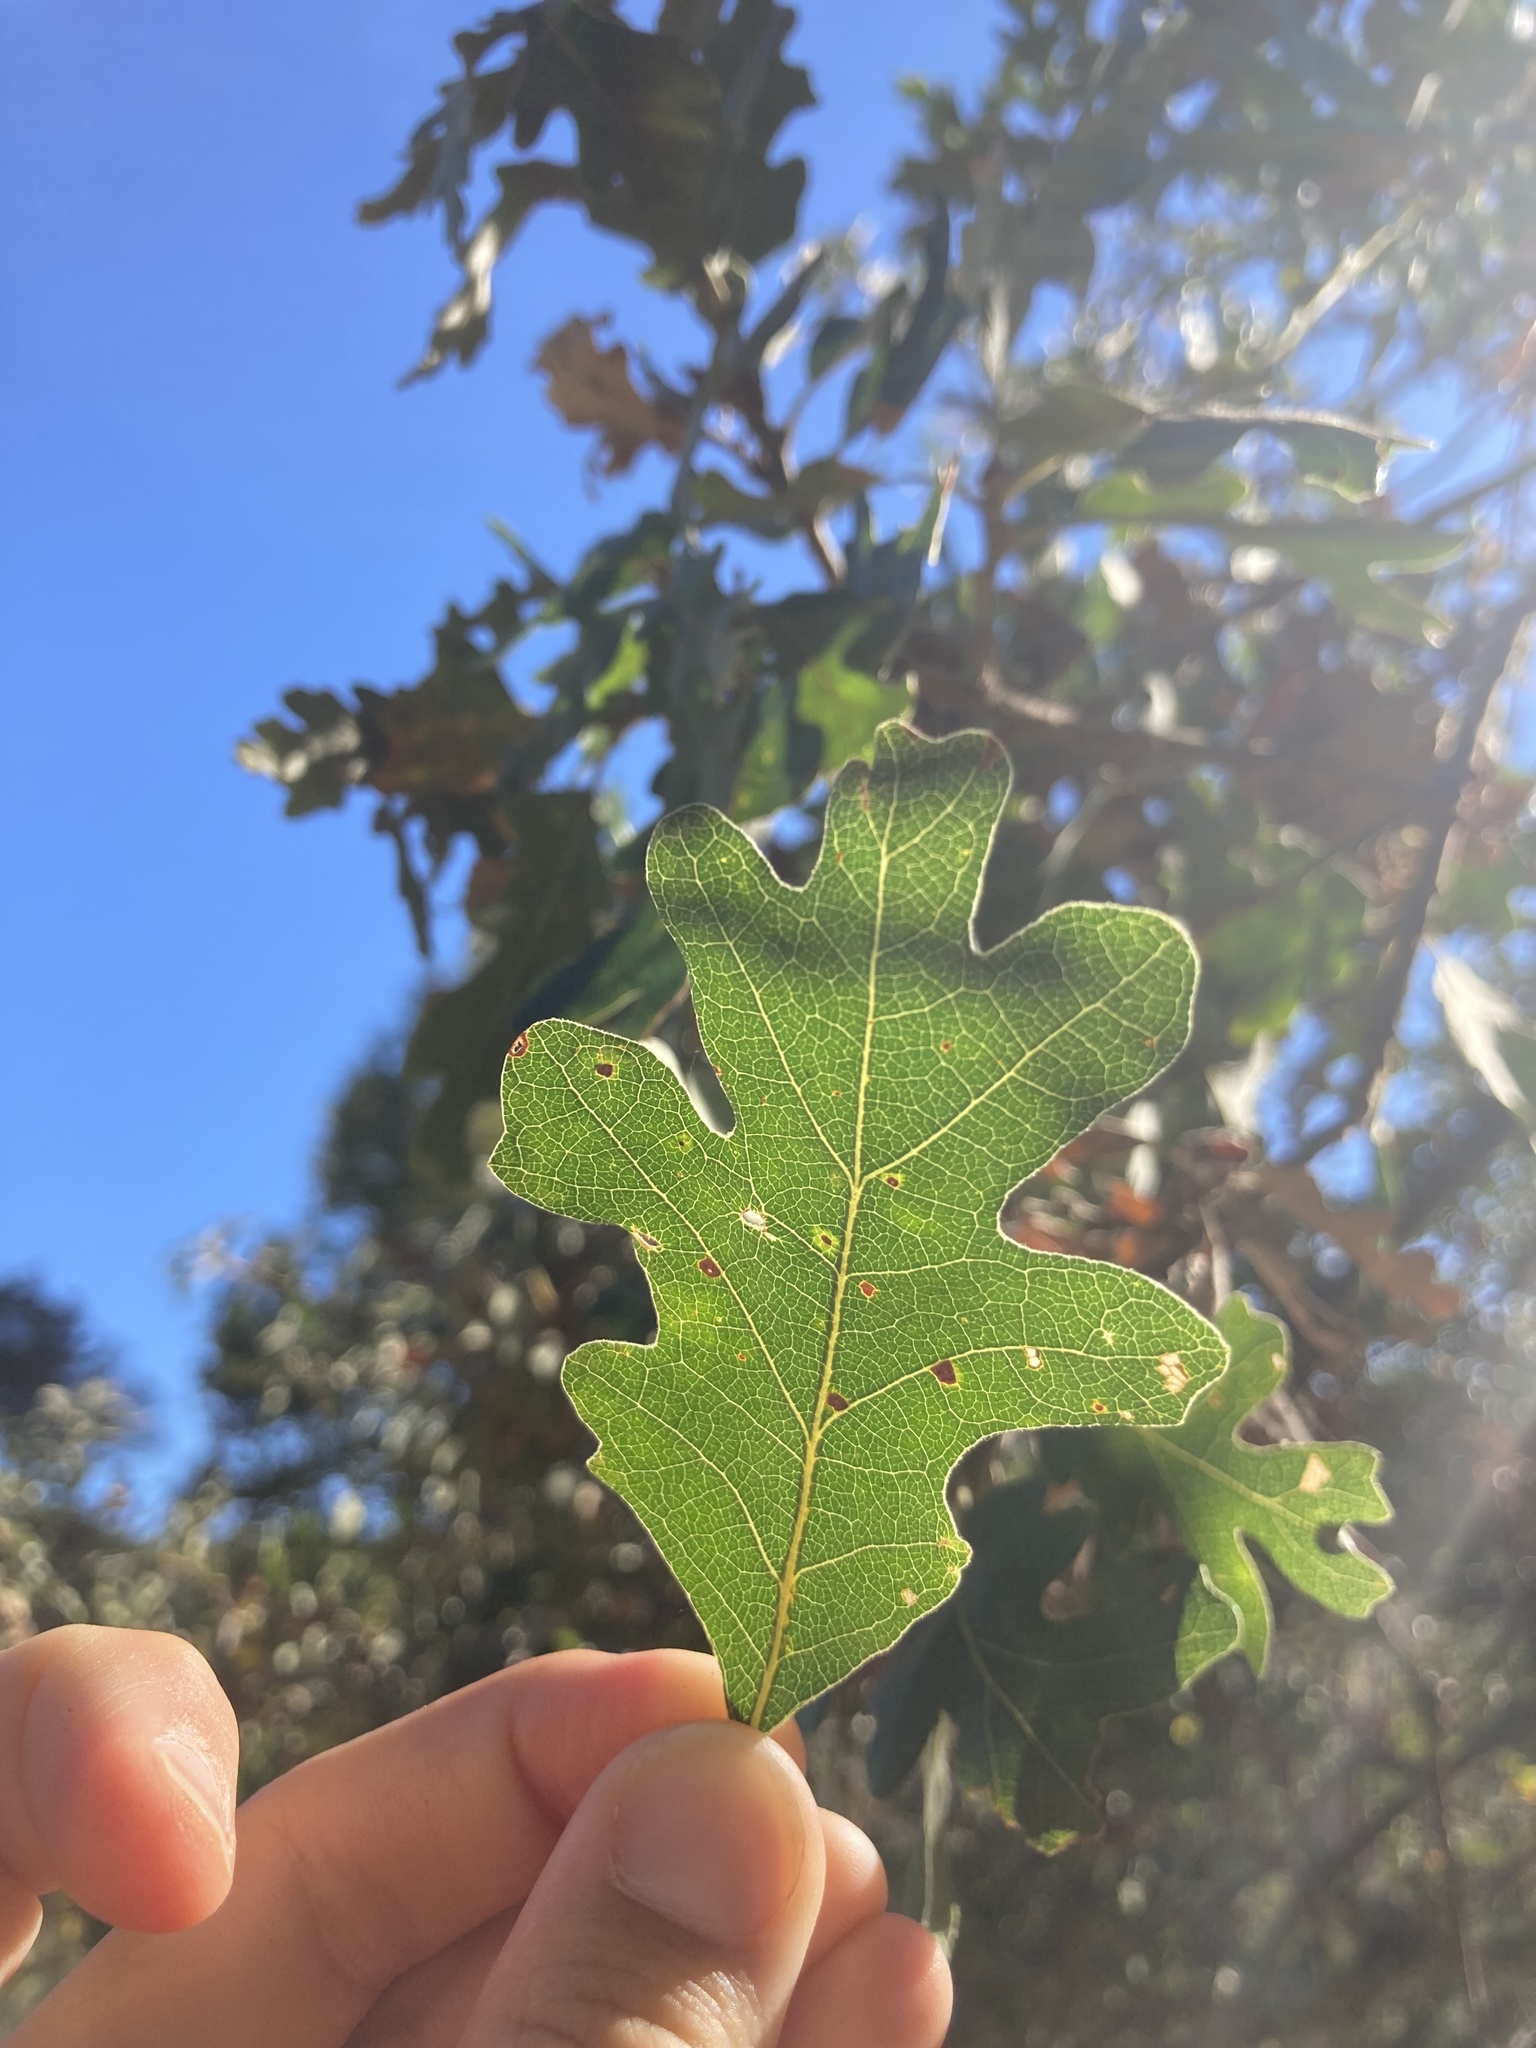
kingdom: Plantae
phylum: Tracheophyta
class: Magnoliopsida
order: Fagales
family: Fagaceae
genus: Quercus
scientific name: Quercus lobata
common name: Valley oak
